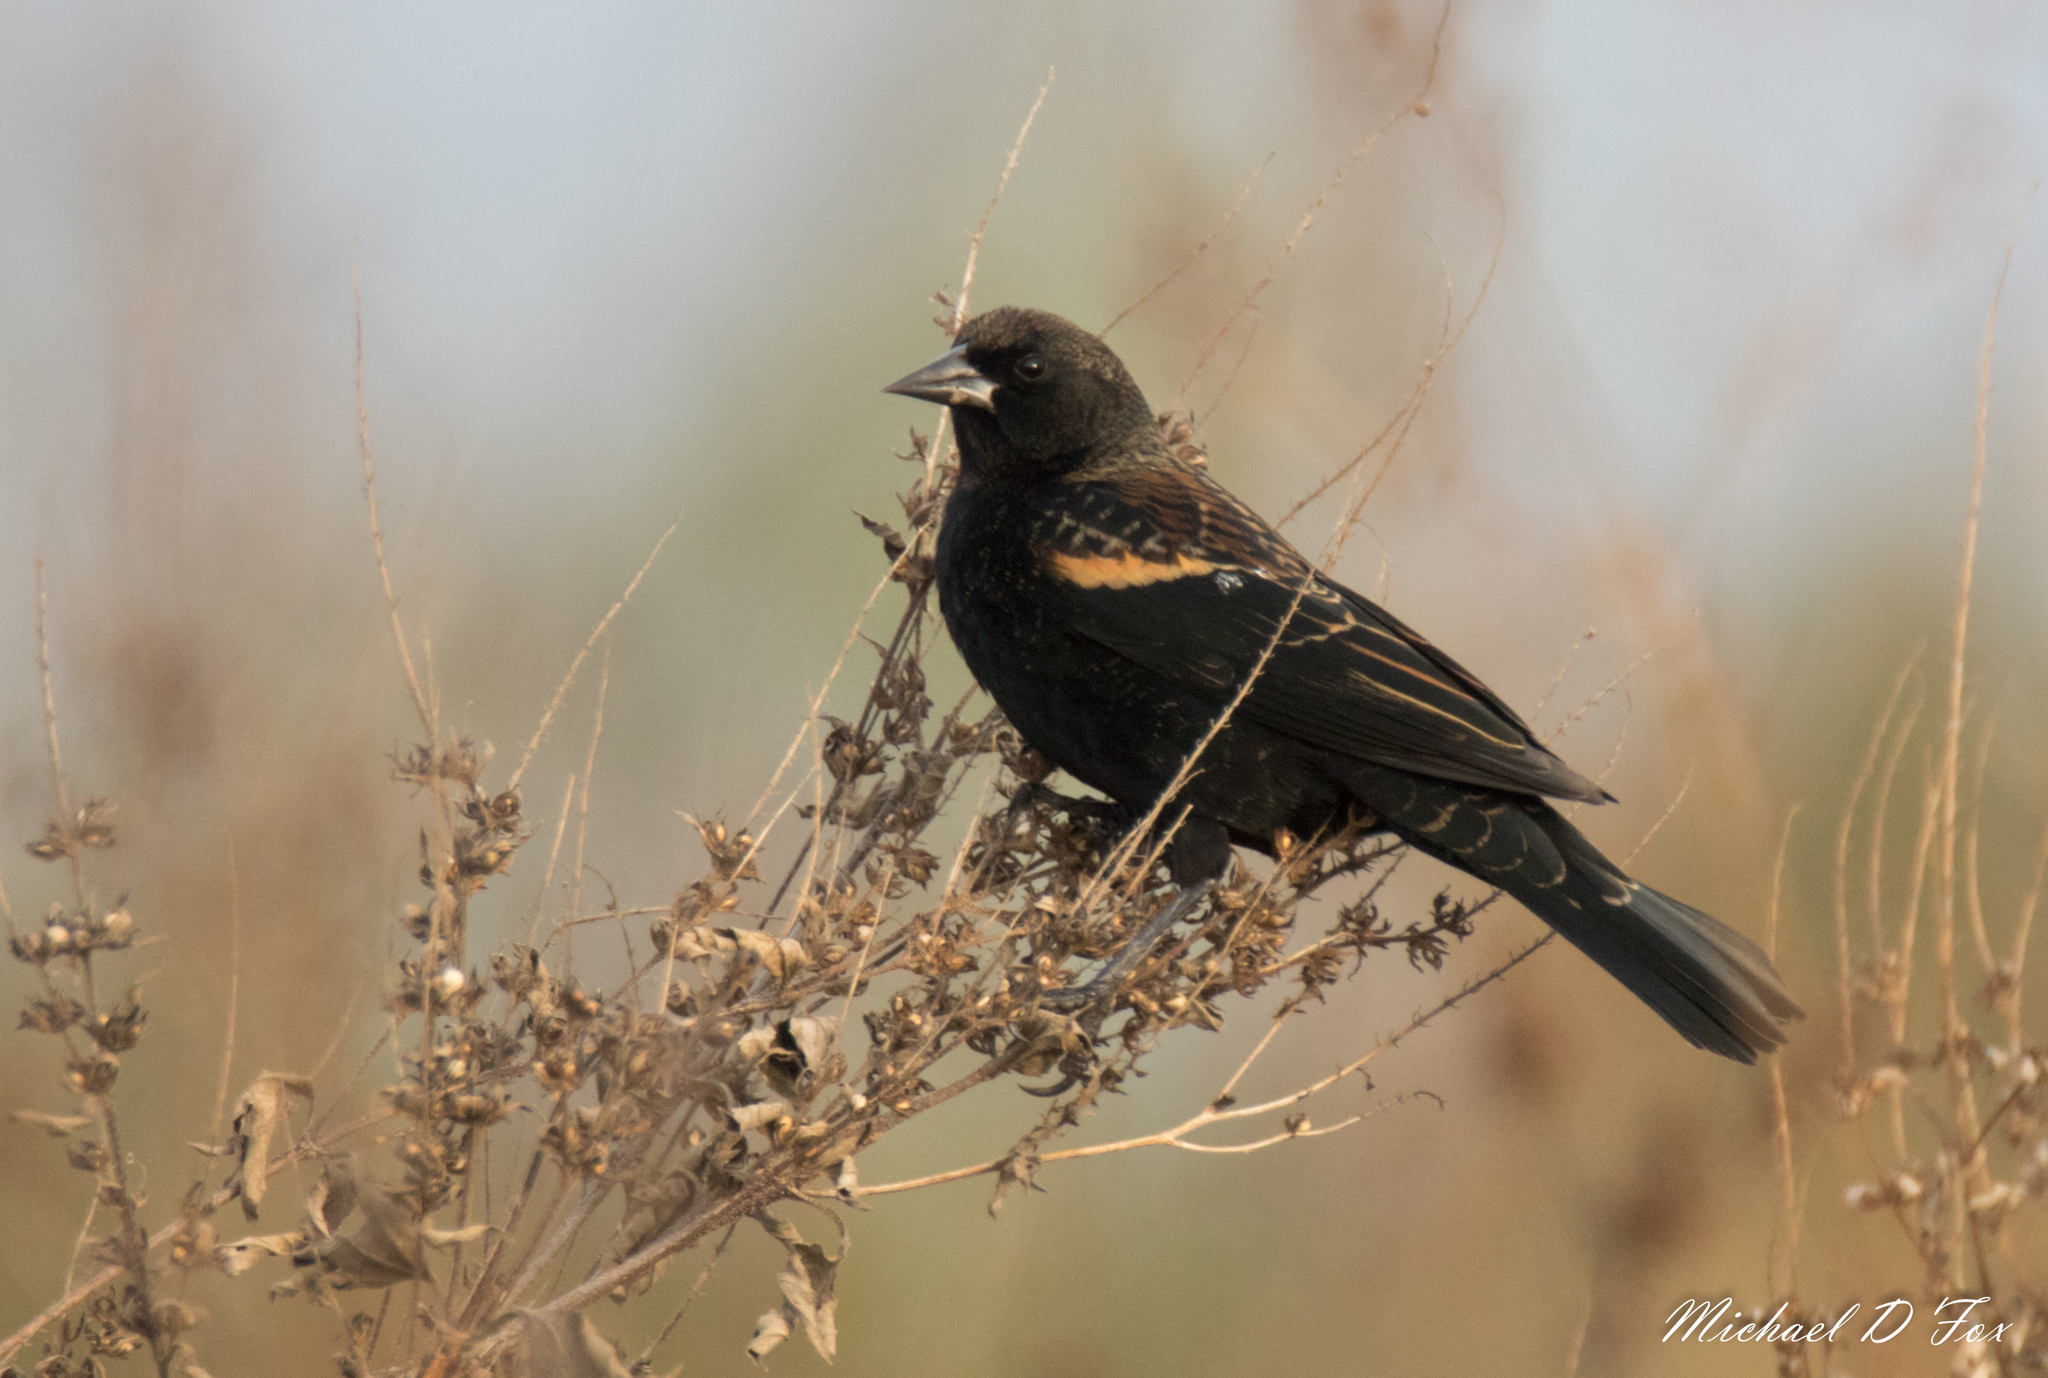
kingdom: Animalia
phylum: Chordata
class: Aves
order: Passeriformes
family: Icteridae
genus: Agelaius
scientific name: Agelaius phoeniceus
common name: Red-winged blackbird
